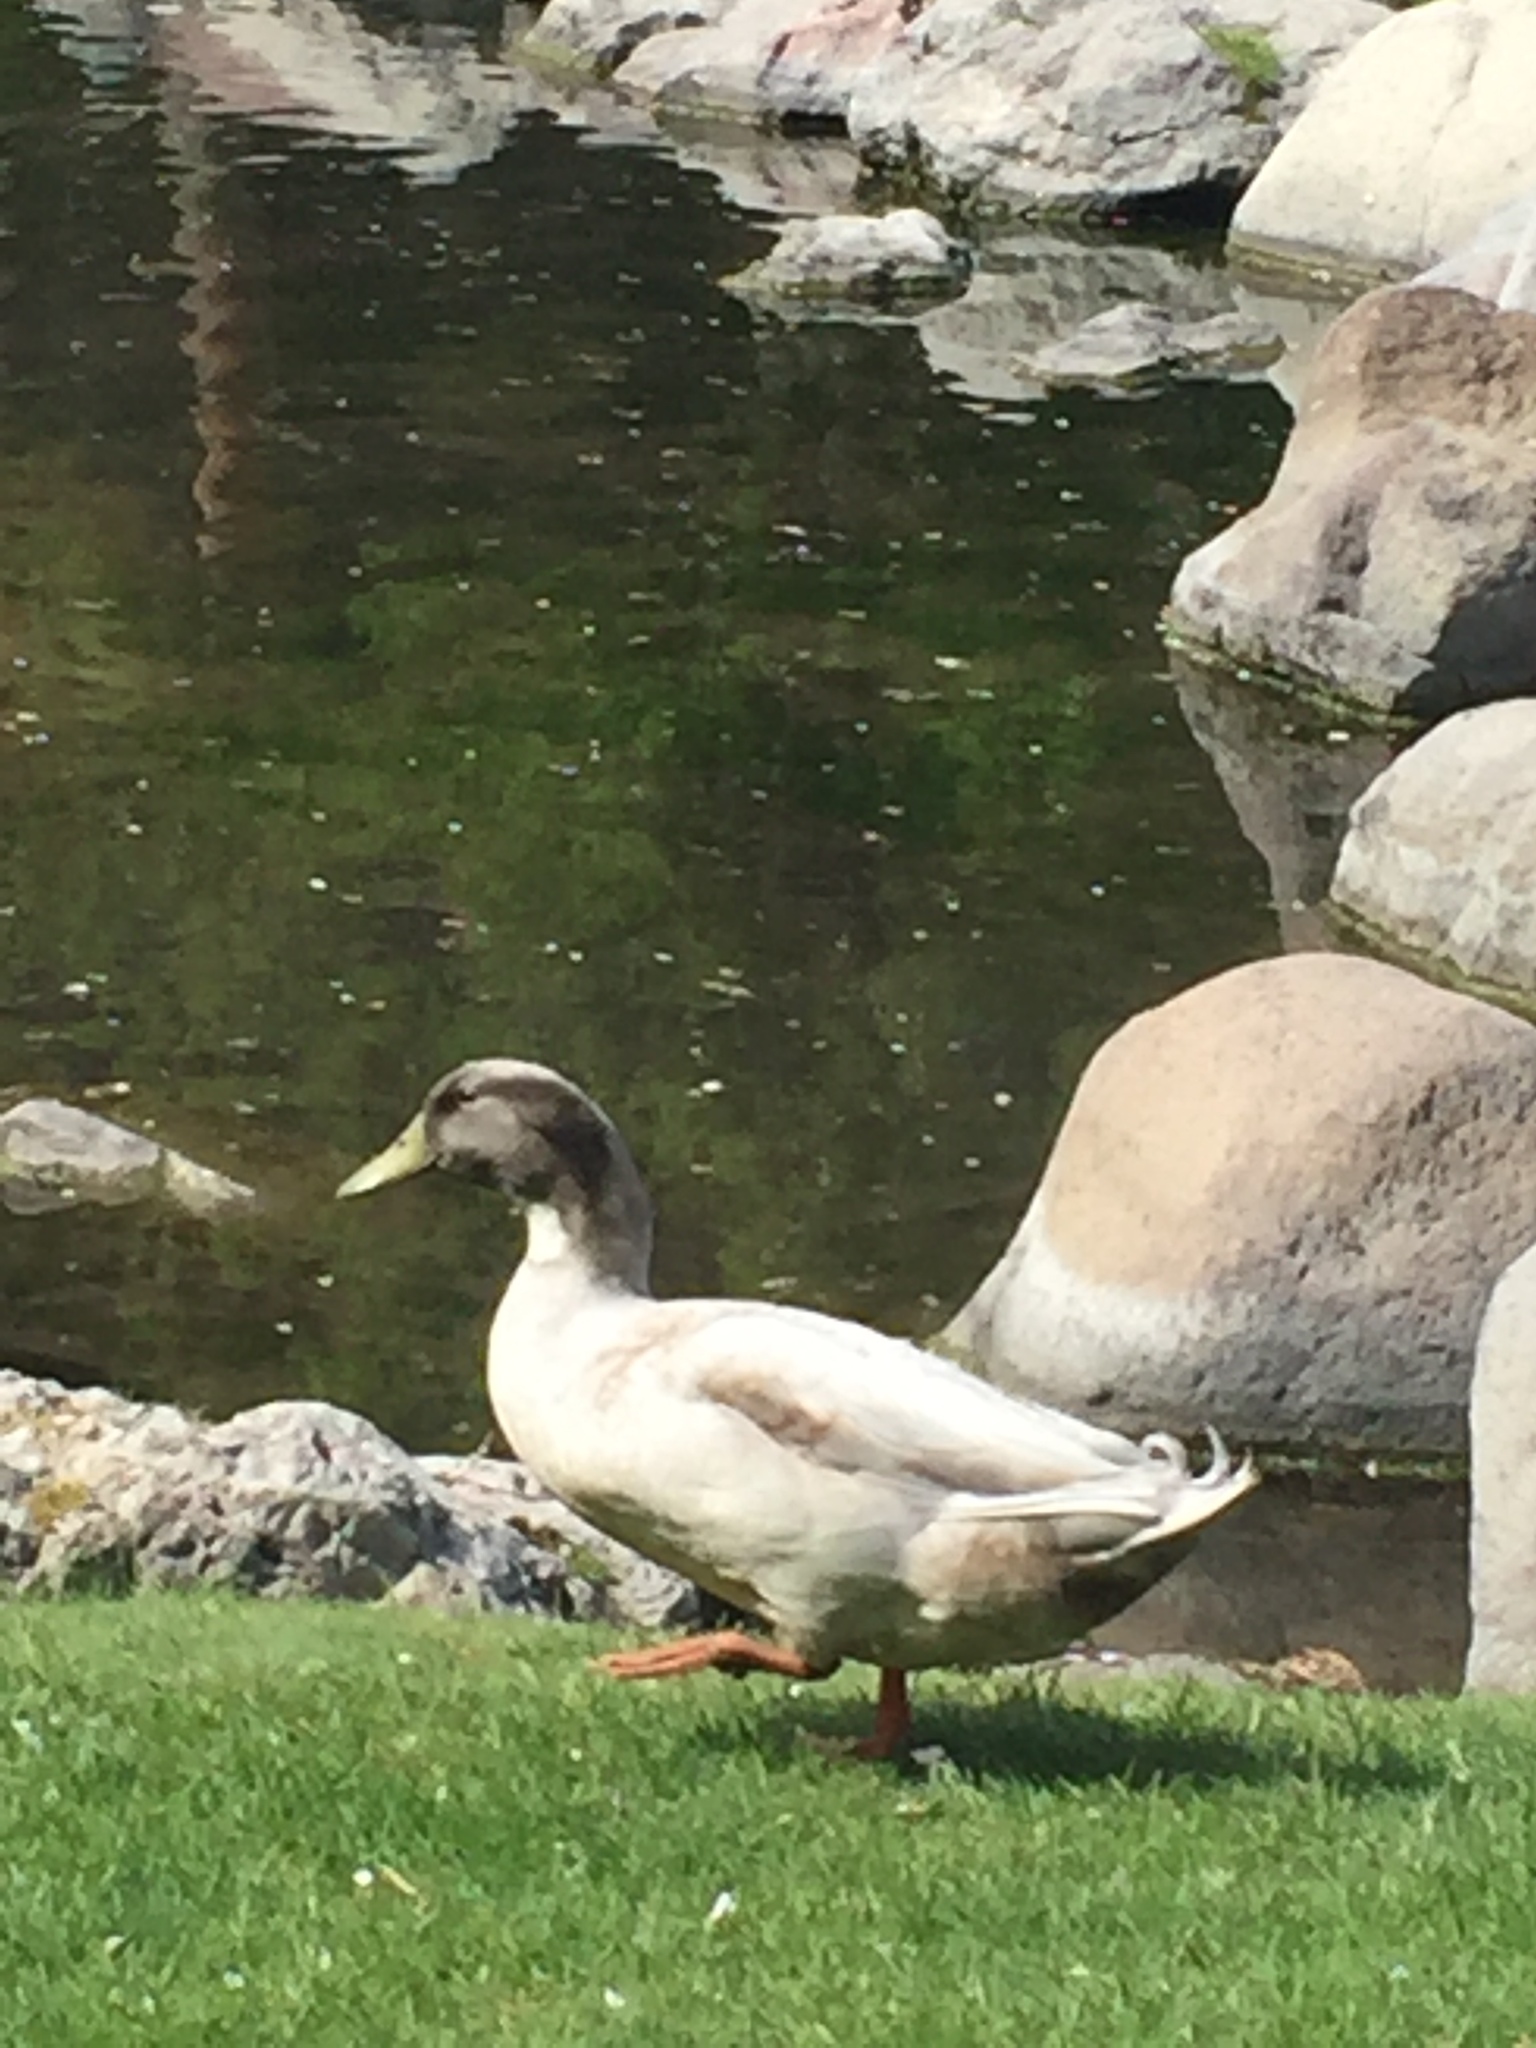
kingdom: Animalia
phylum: Chordata
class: Aves
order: Anseriformes
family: Anatidae
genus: Anas
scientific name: Anas platyrhynchos
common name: Mallard
